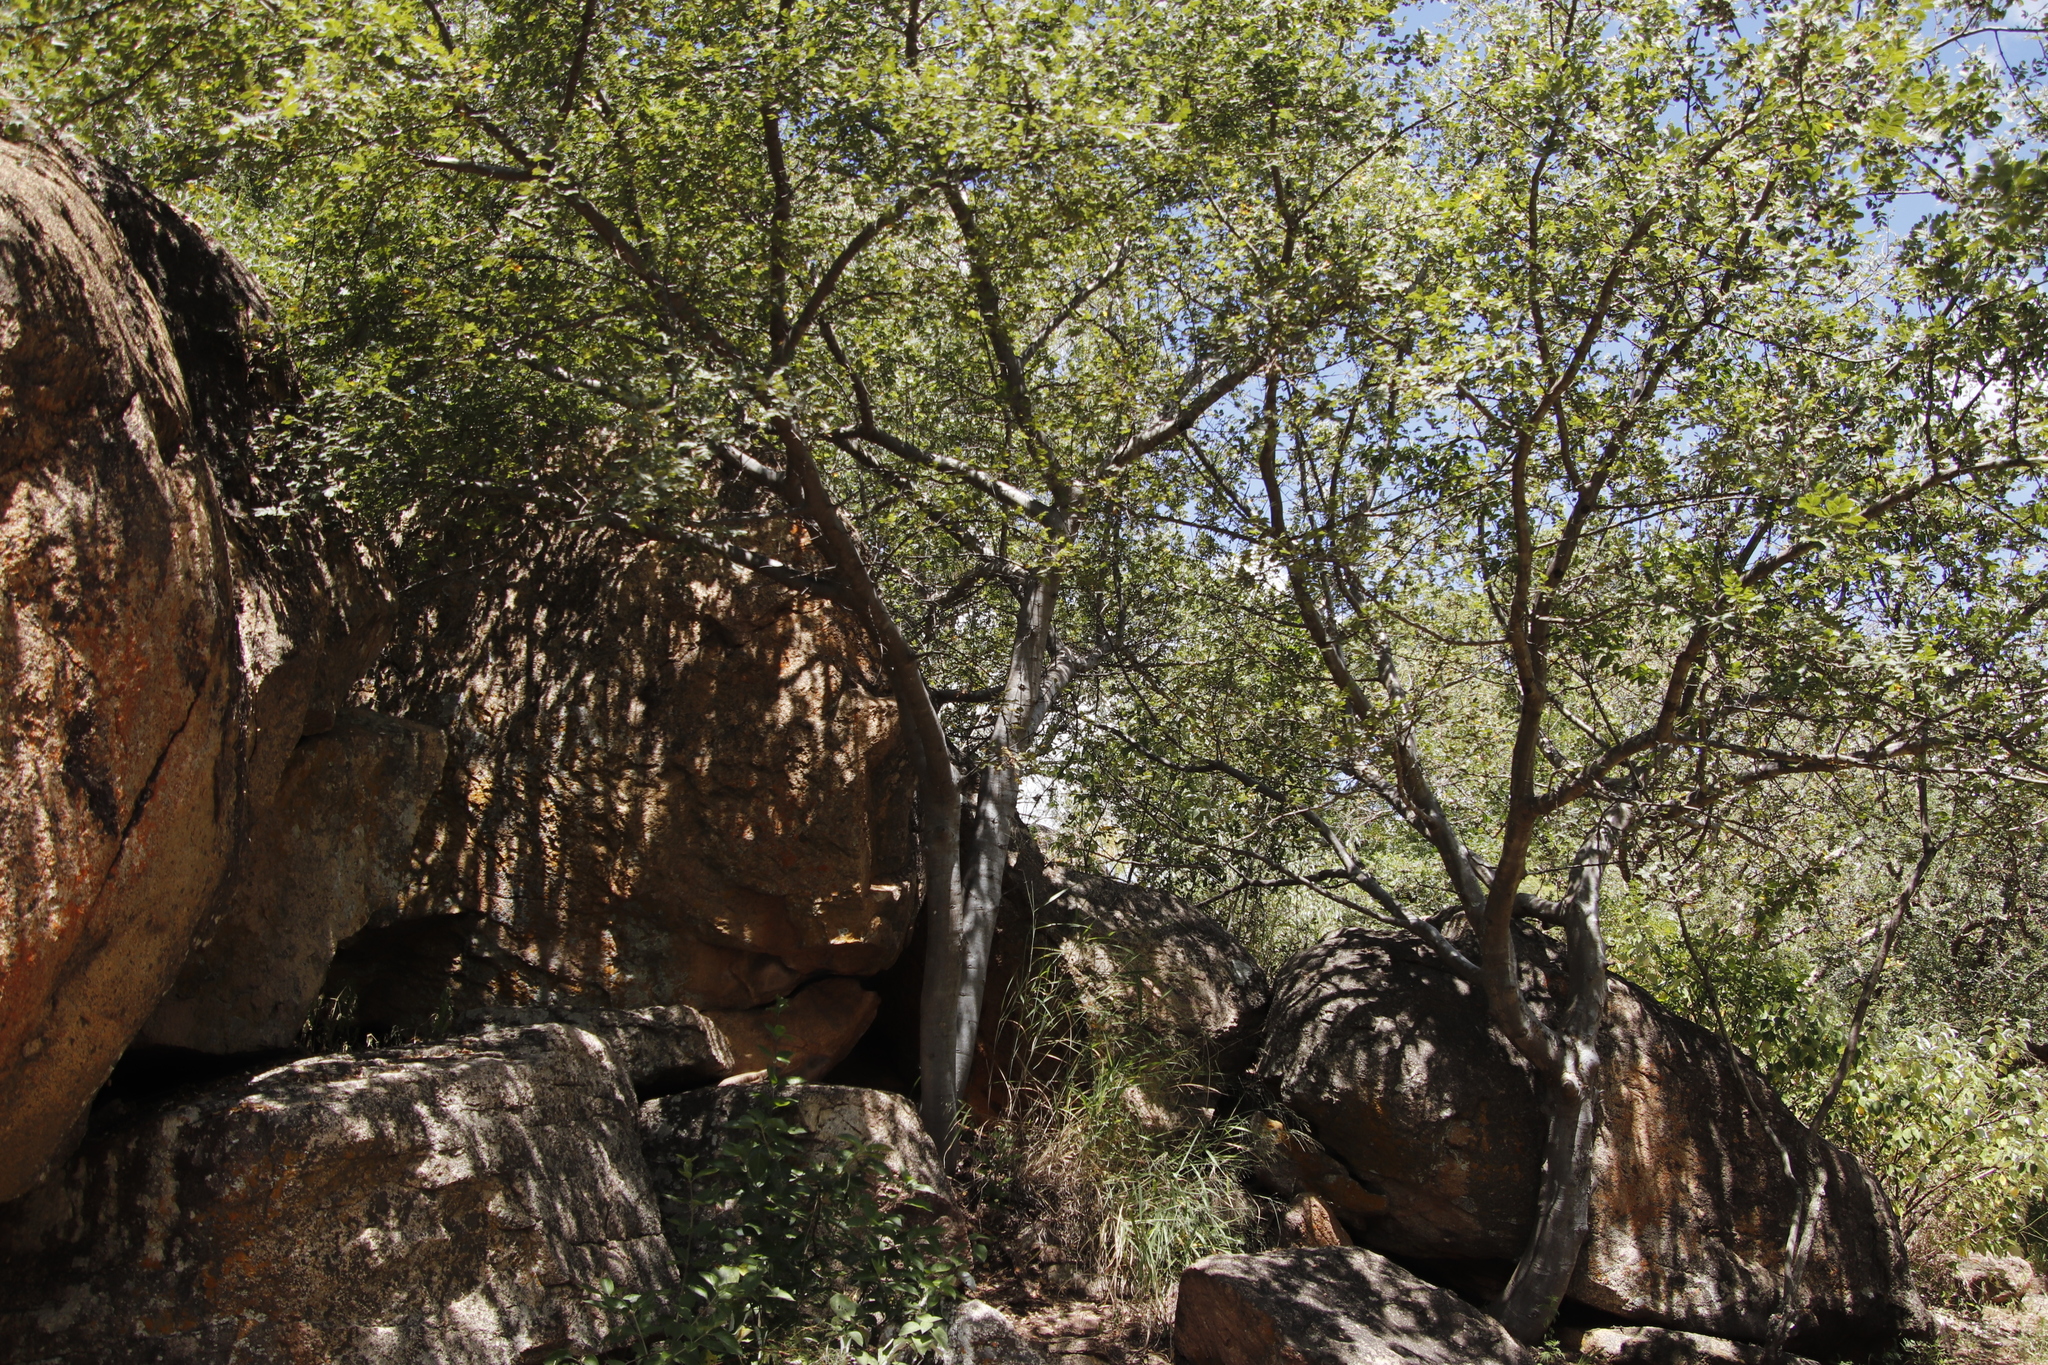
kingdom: Plantae
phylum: Tracheophyta
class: Magnoliopsida
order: Sapindales
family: Anacardiaceae
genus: Lannea
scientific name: Lannea discolor
